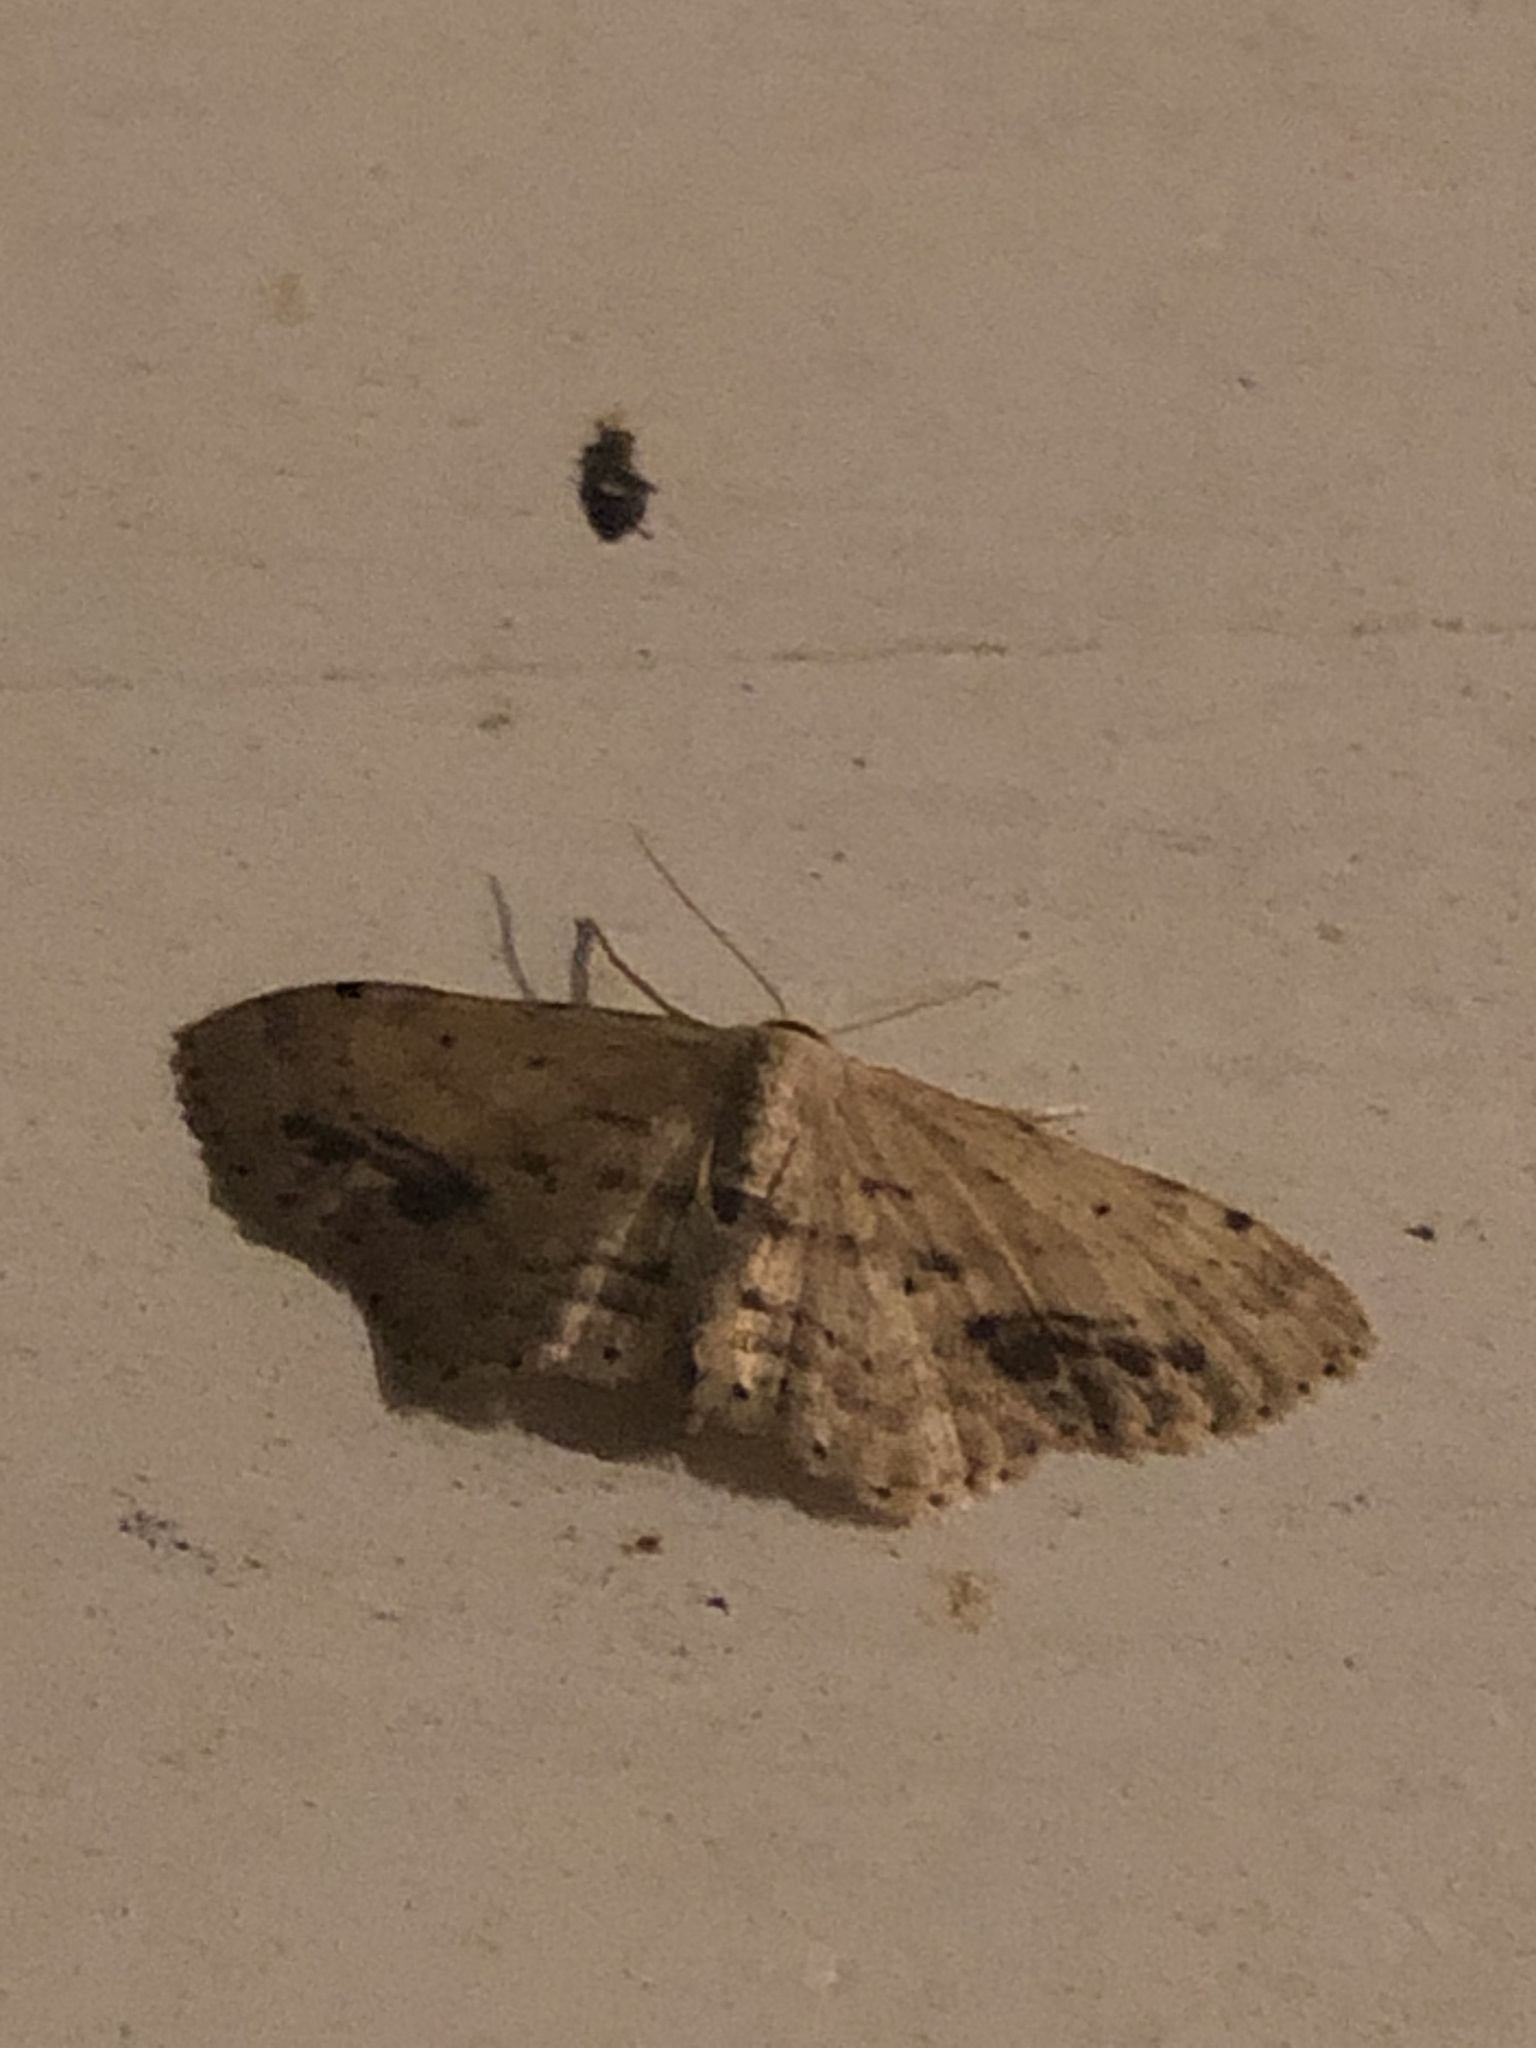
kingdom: Animalia
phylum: Arthropoda
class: Insecta
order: Lepidoptera
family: Geometridae
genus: Idaea
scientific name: Idaea dimidiata
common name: Single-dotted wave
